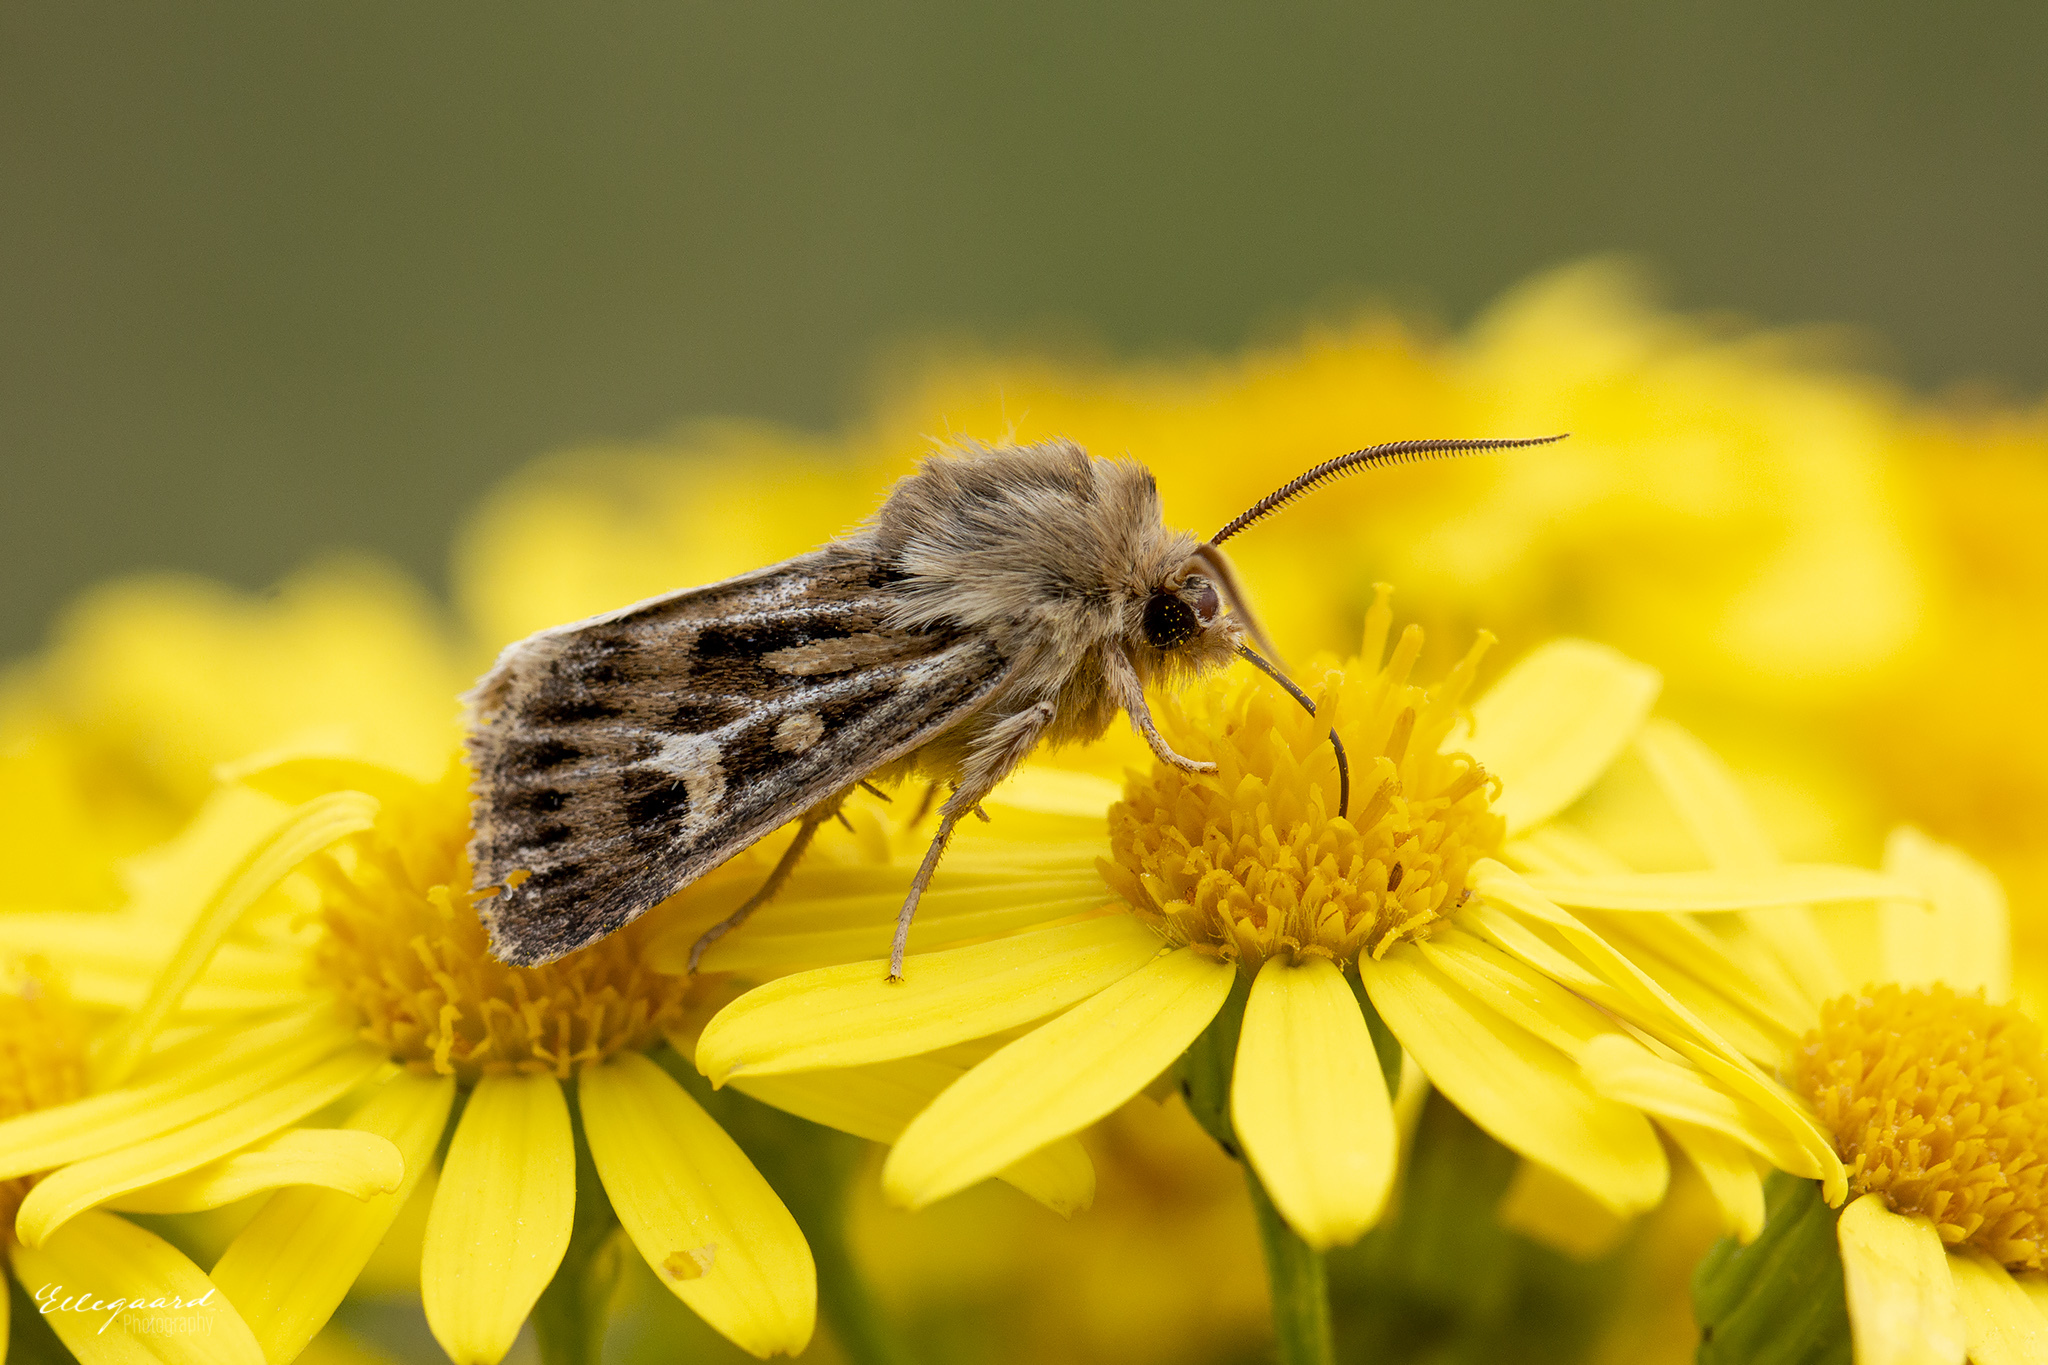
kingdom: Animalia
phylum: Arthropoda
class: Insecta
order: Lepidoptera
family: Noctuidae
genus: Cerapteryx
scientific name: Cerapteryx graminis
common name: Antler moth
